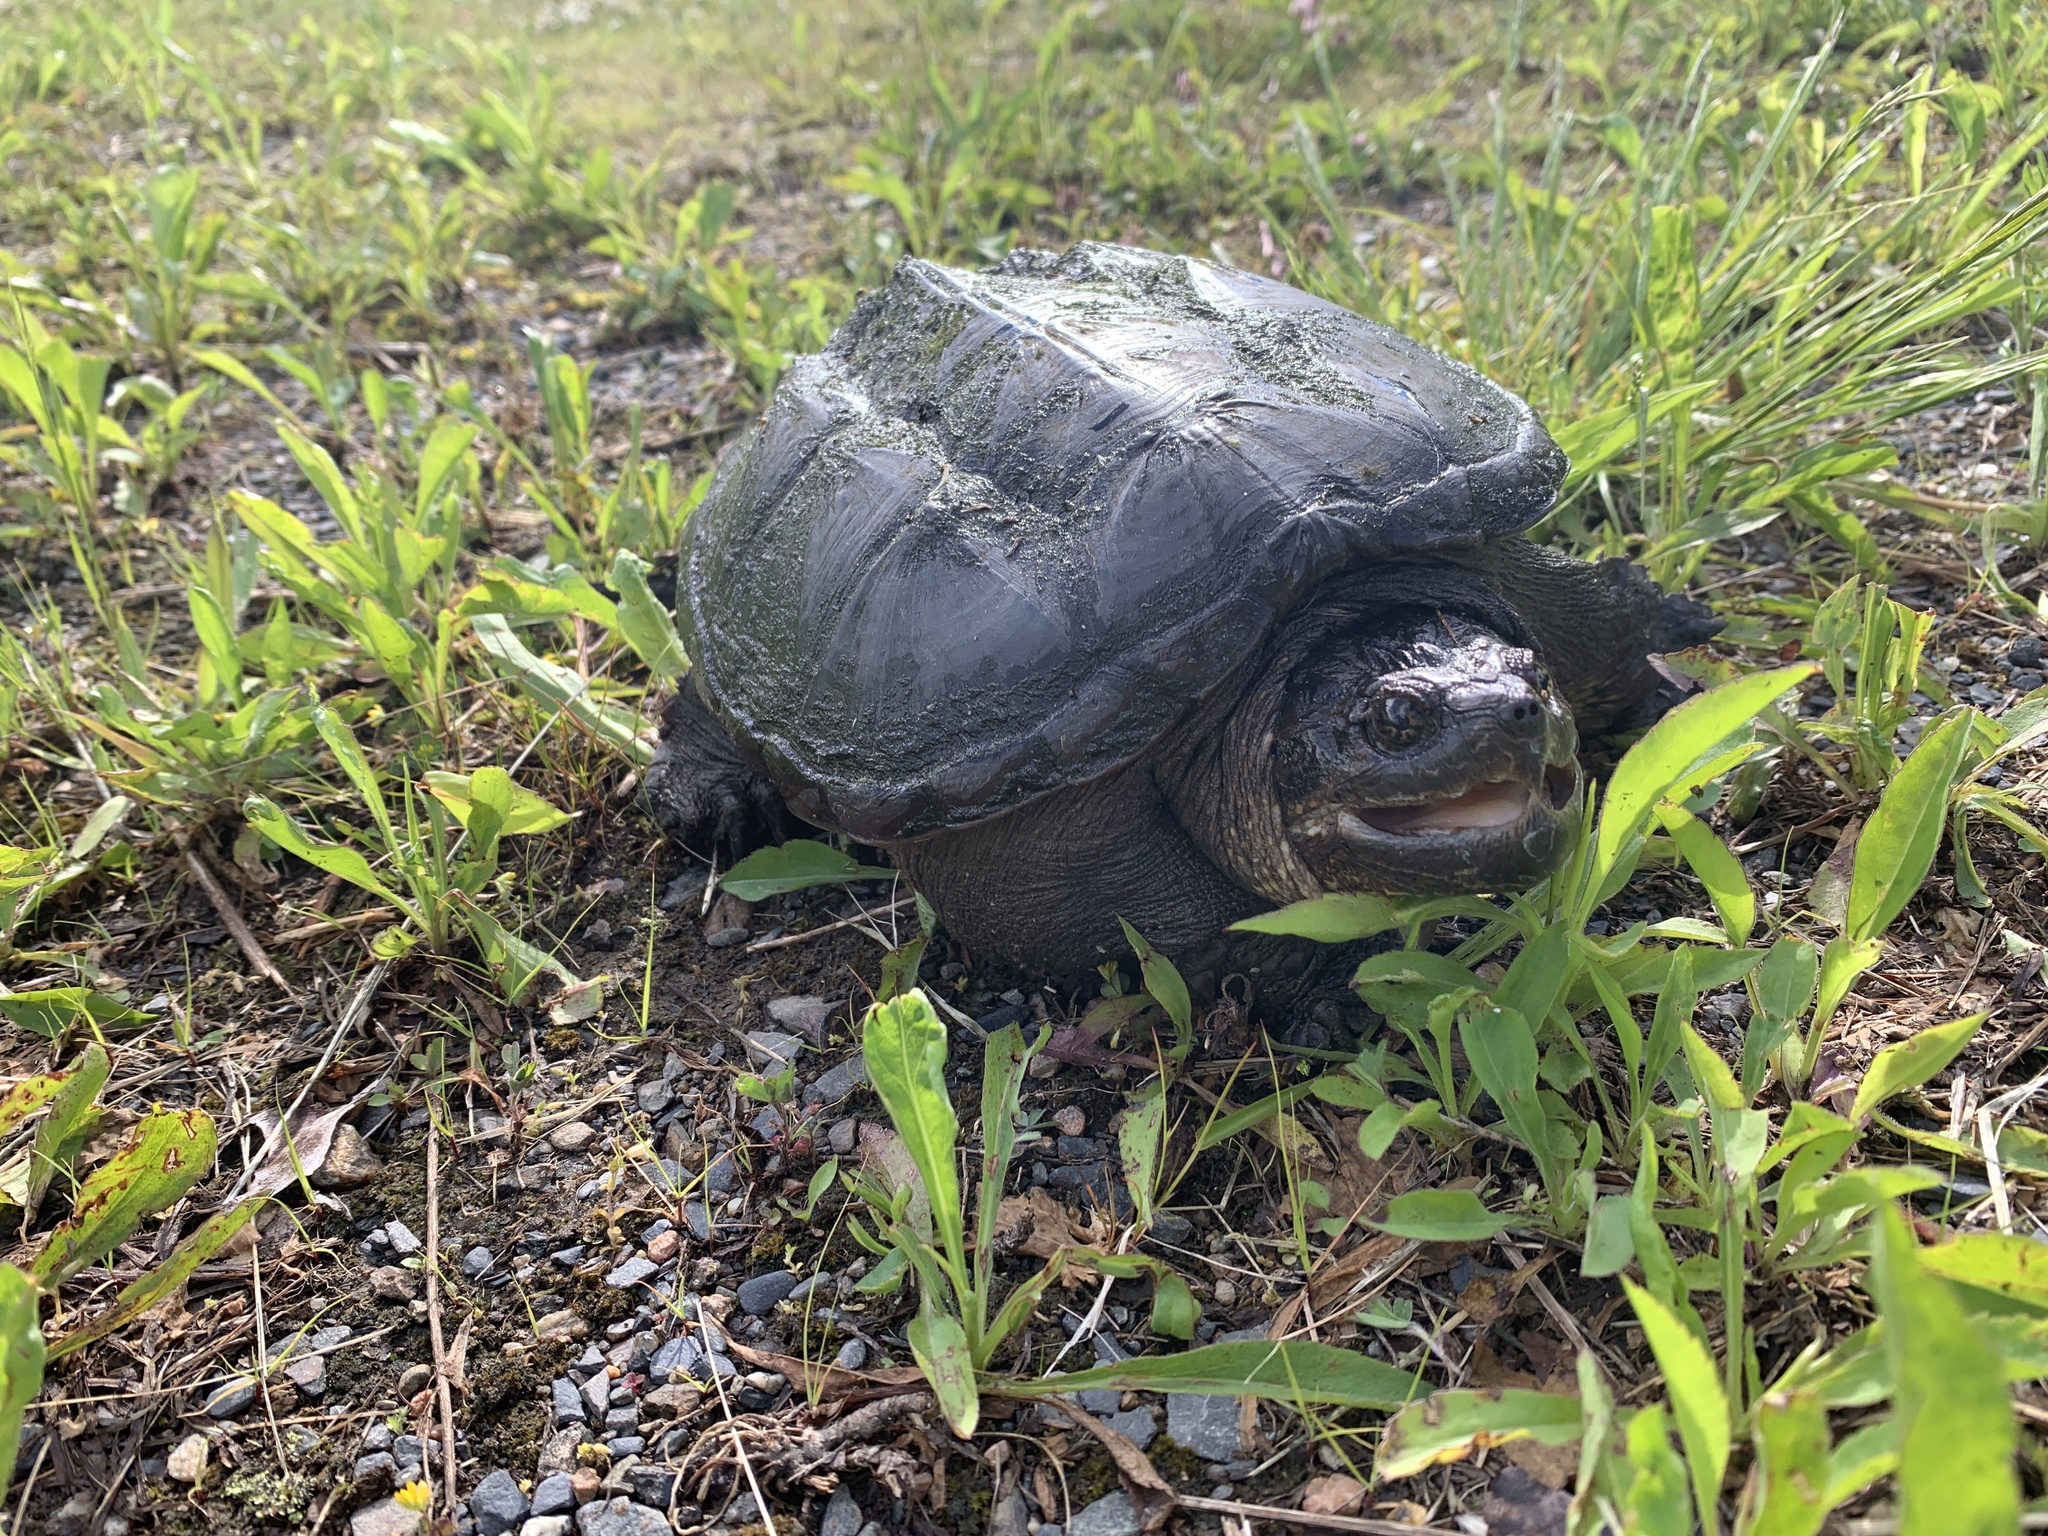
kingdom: Animalia
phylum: Chordata
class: Testudines
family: Chelydridae
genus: Chelydra
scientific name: Chelydra serpentina
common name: Common snapping turtle
